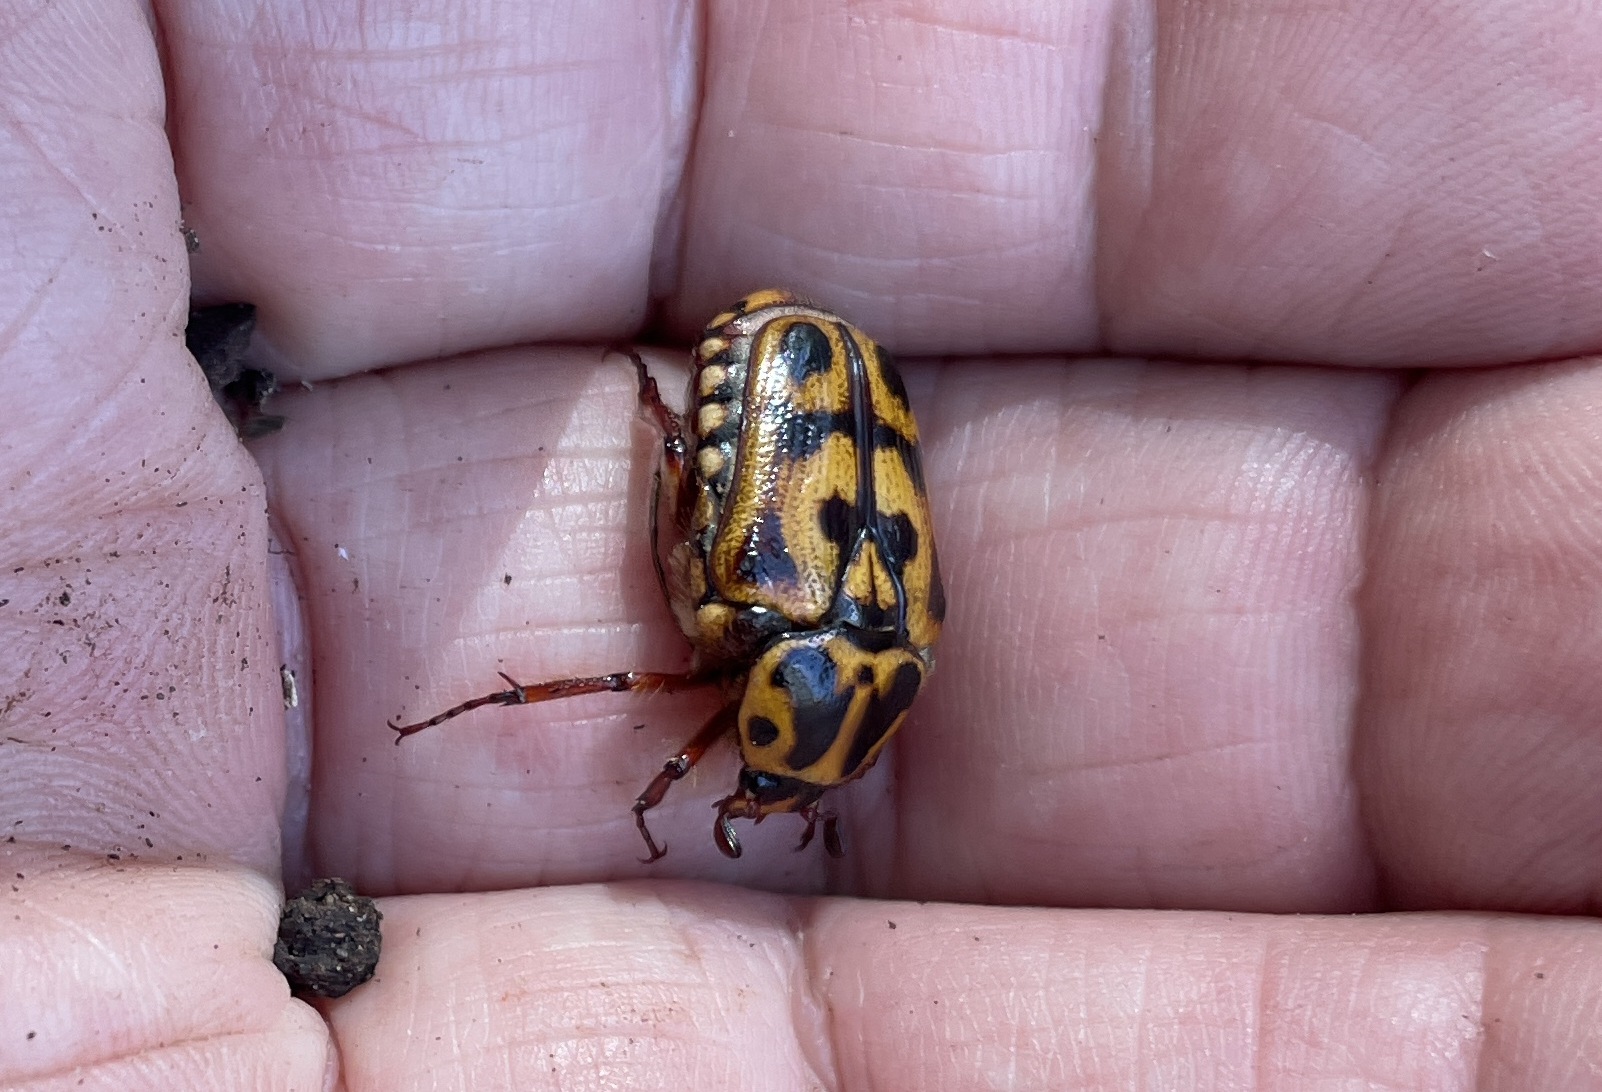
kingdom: Animalia
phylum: Arthropoda
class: Insecta
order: Coleoptera
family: Scarabaeidae
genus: Lyraphora
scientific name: Lyraphora obliquata
